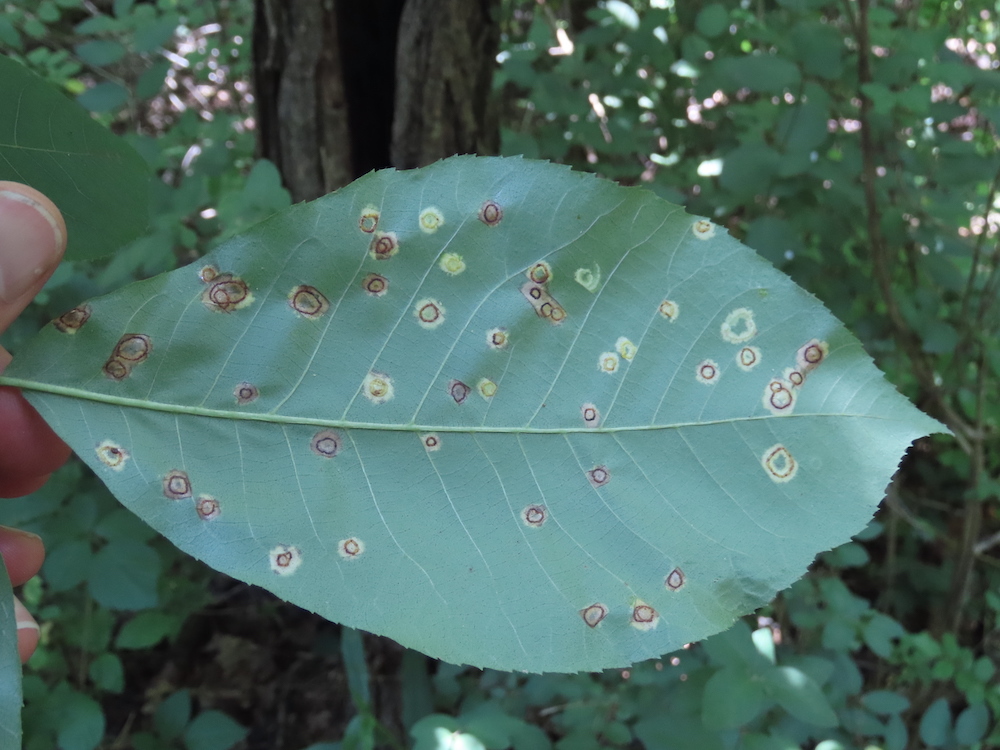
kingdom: Animalia
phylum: Arthropoda
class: Insecta
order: Diptera
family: Cecidomyiidae
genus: Gliaspilota
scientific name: Gliaspilota glutinosa
